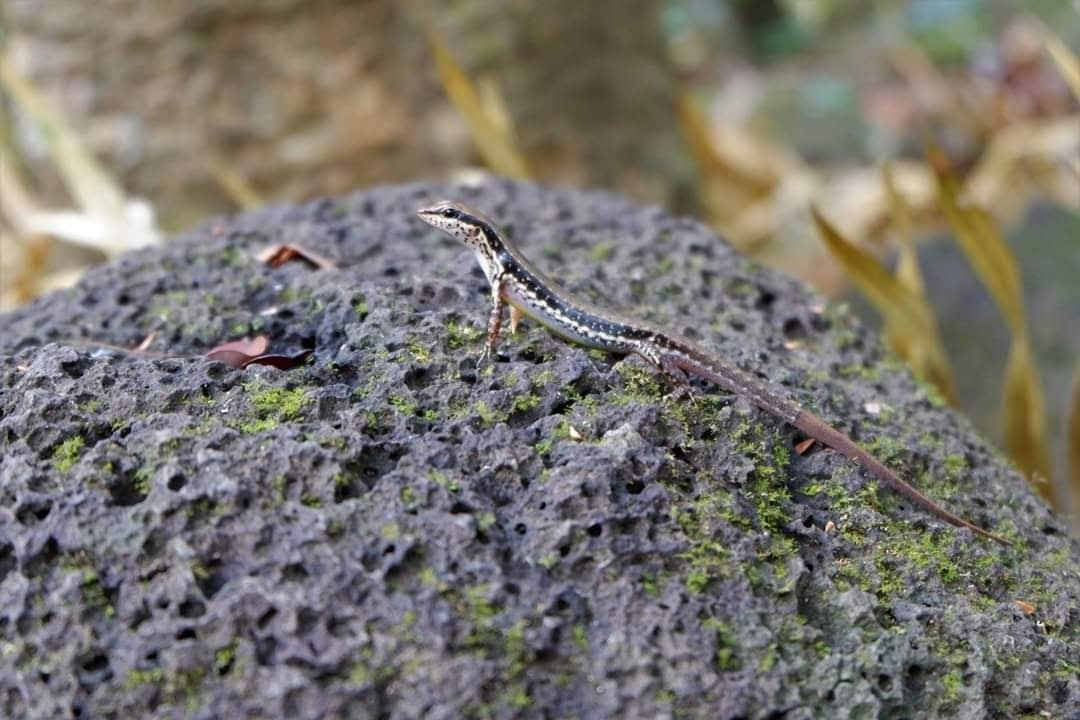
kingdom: Animalia
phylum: Chordata
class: Squamata
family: Scincidae
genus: Sphenomorphus
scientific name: Sphenomorphus maculatus
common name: Maculated forest skink
